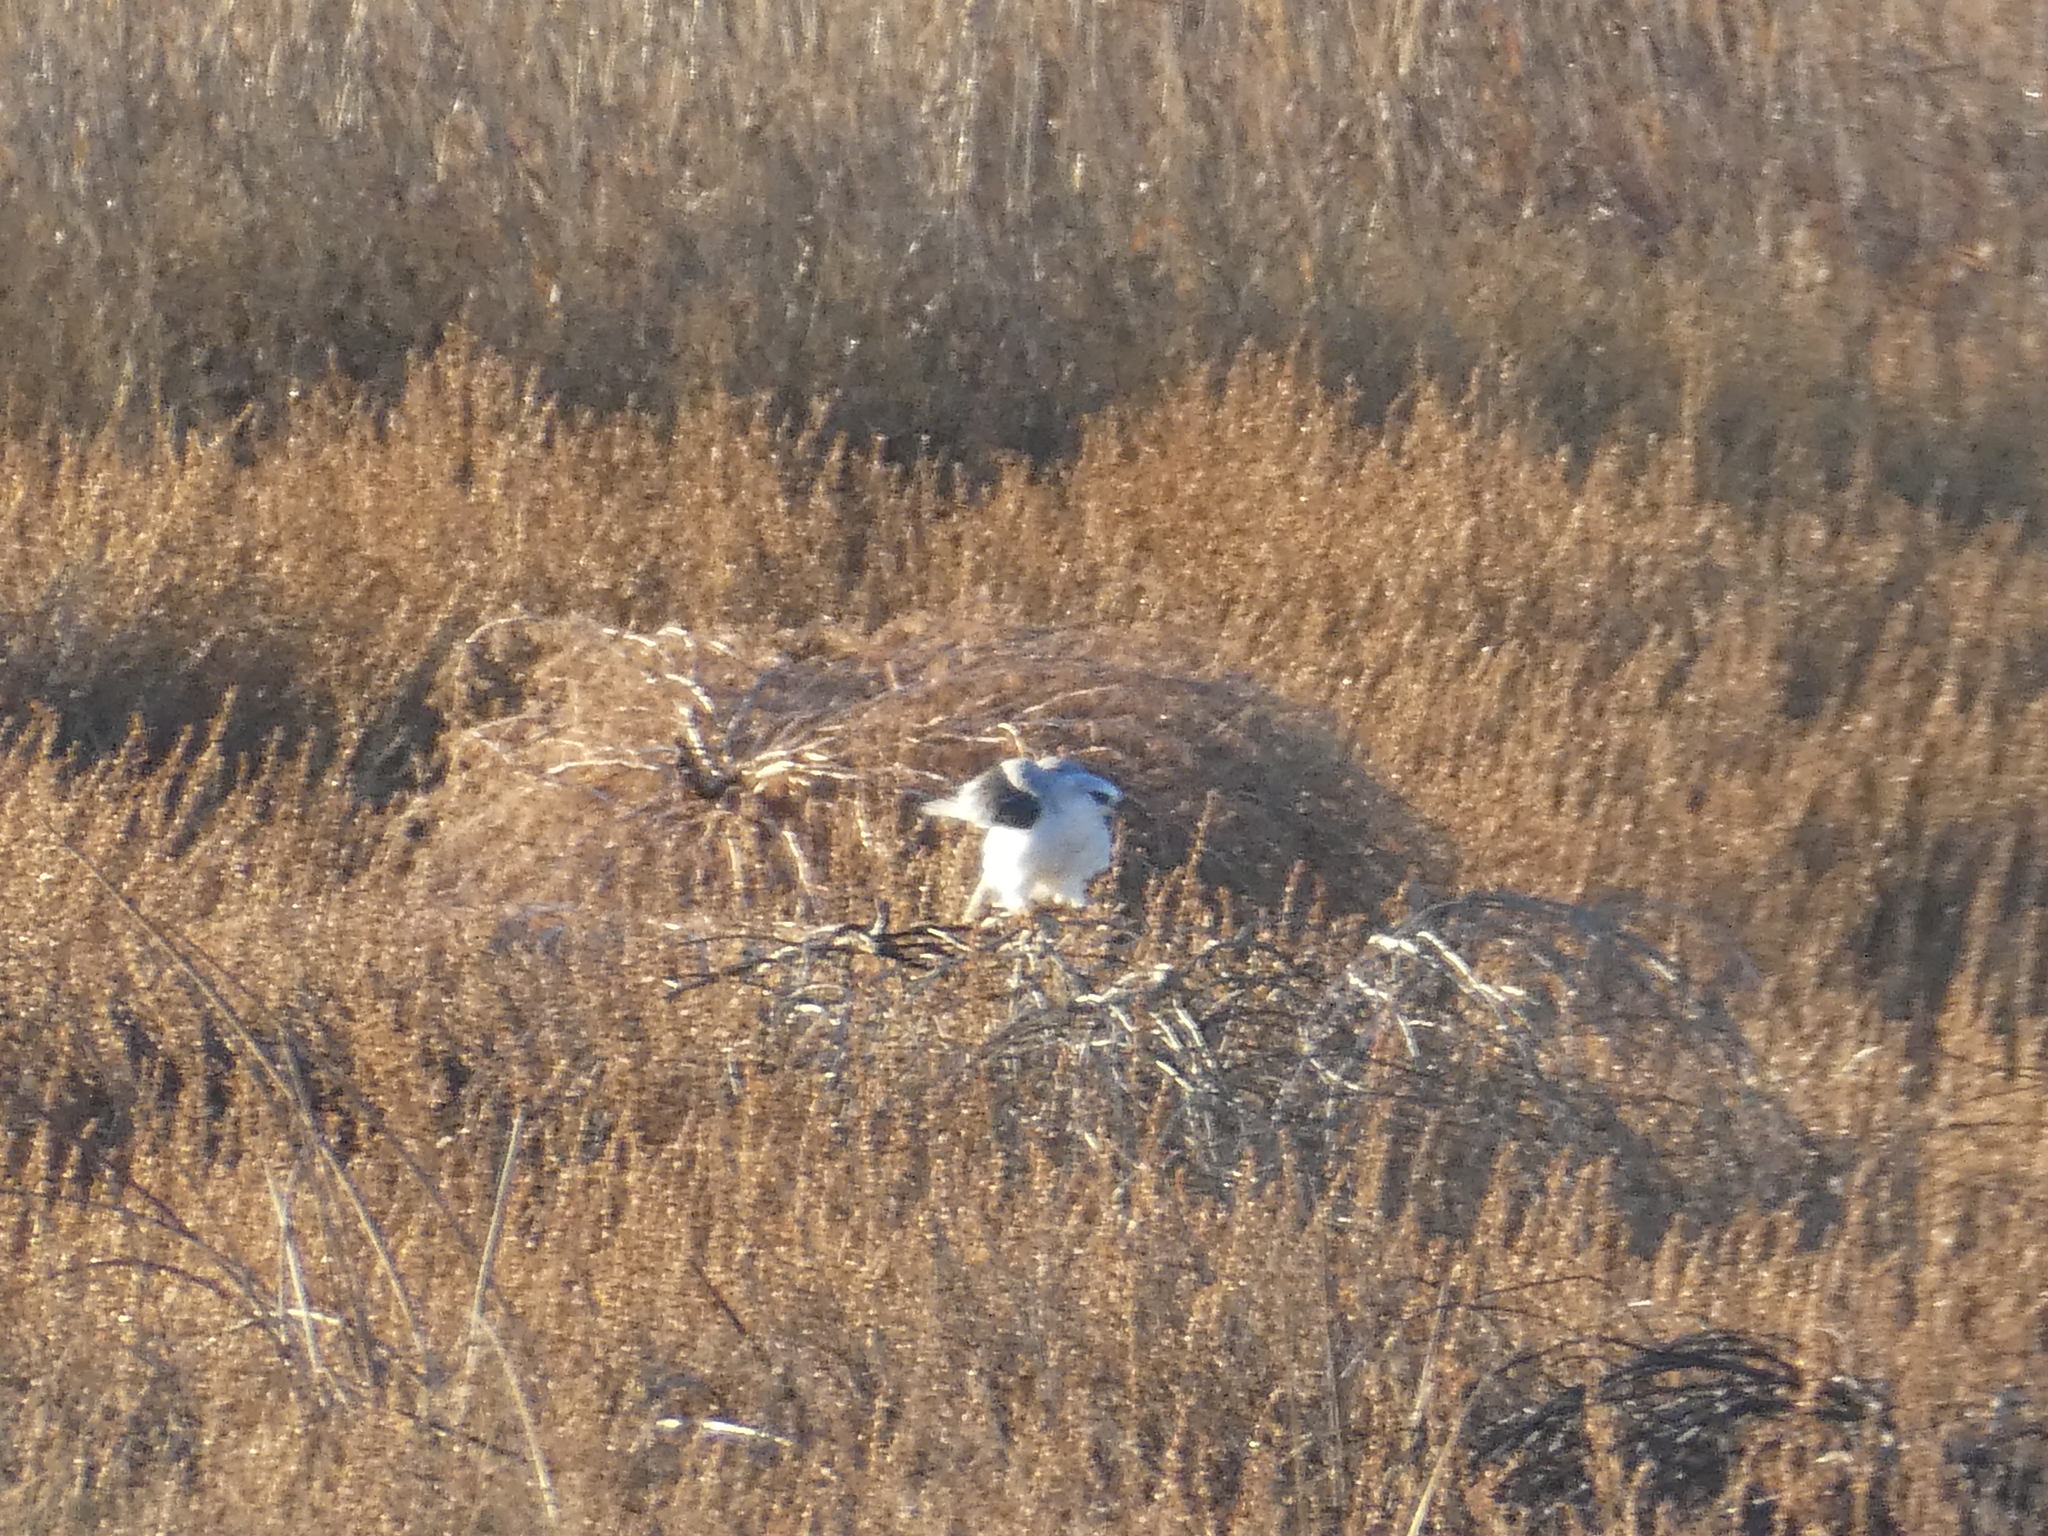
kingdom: Animalia
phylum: Chordata
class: Aves
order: Accipitriformes
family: Accipitridae
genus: Elanus
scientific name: Elanus leucurus
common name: White-tailed kite
